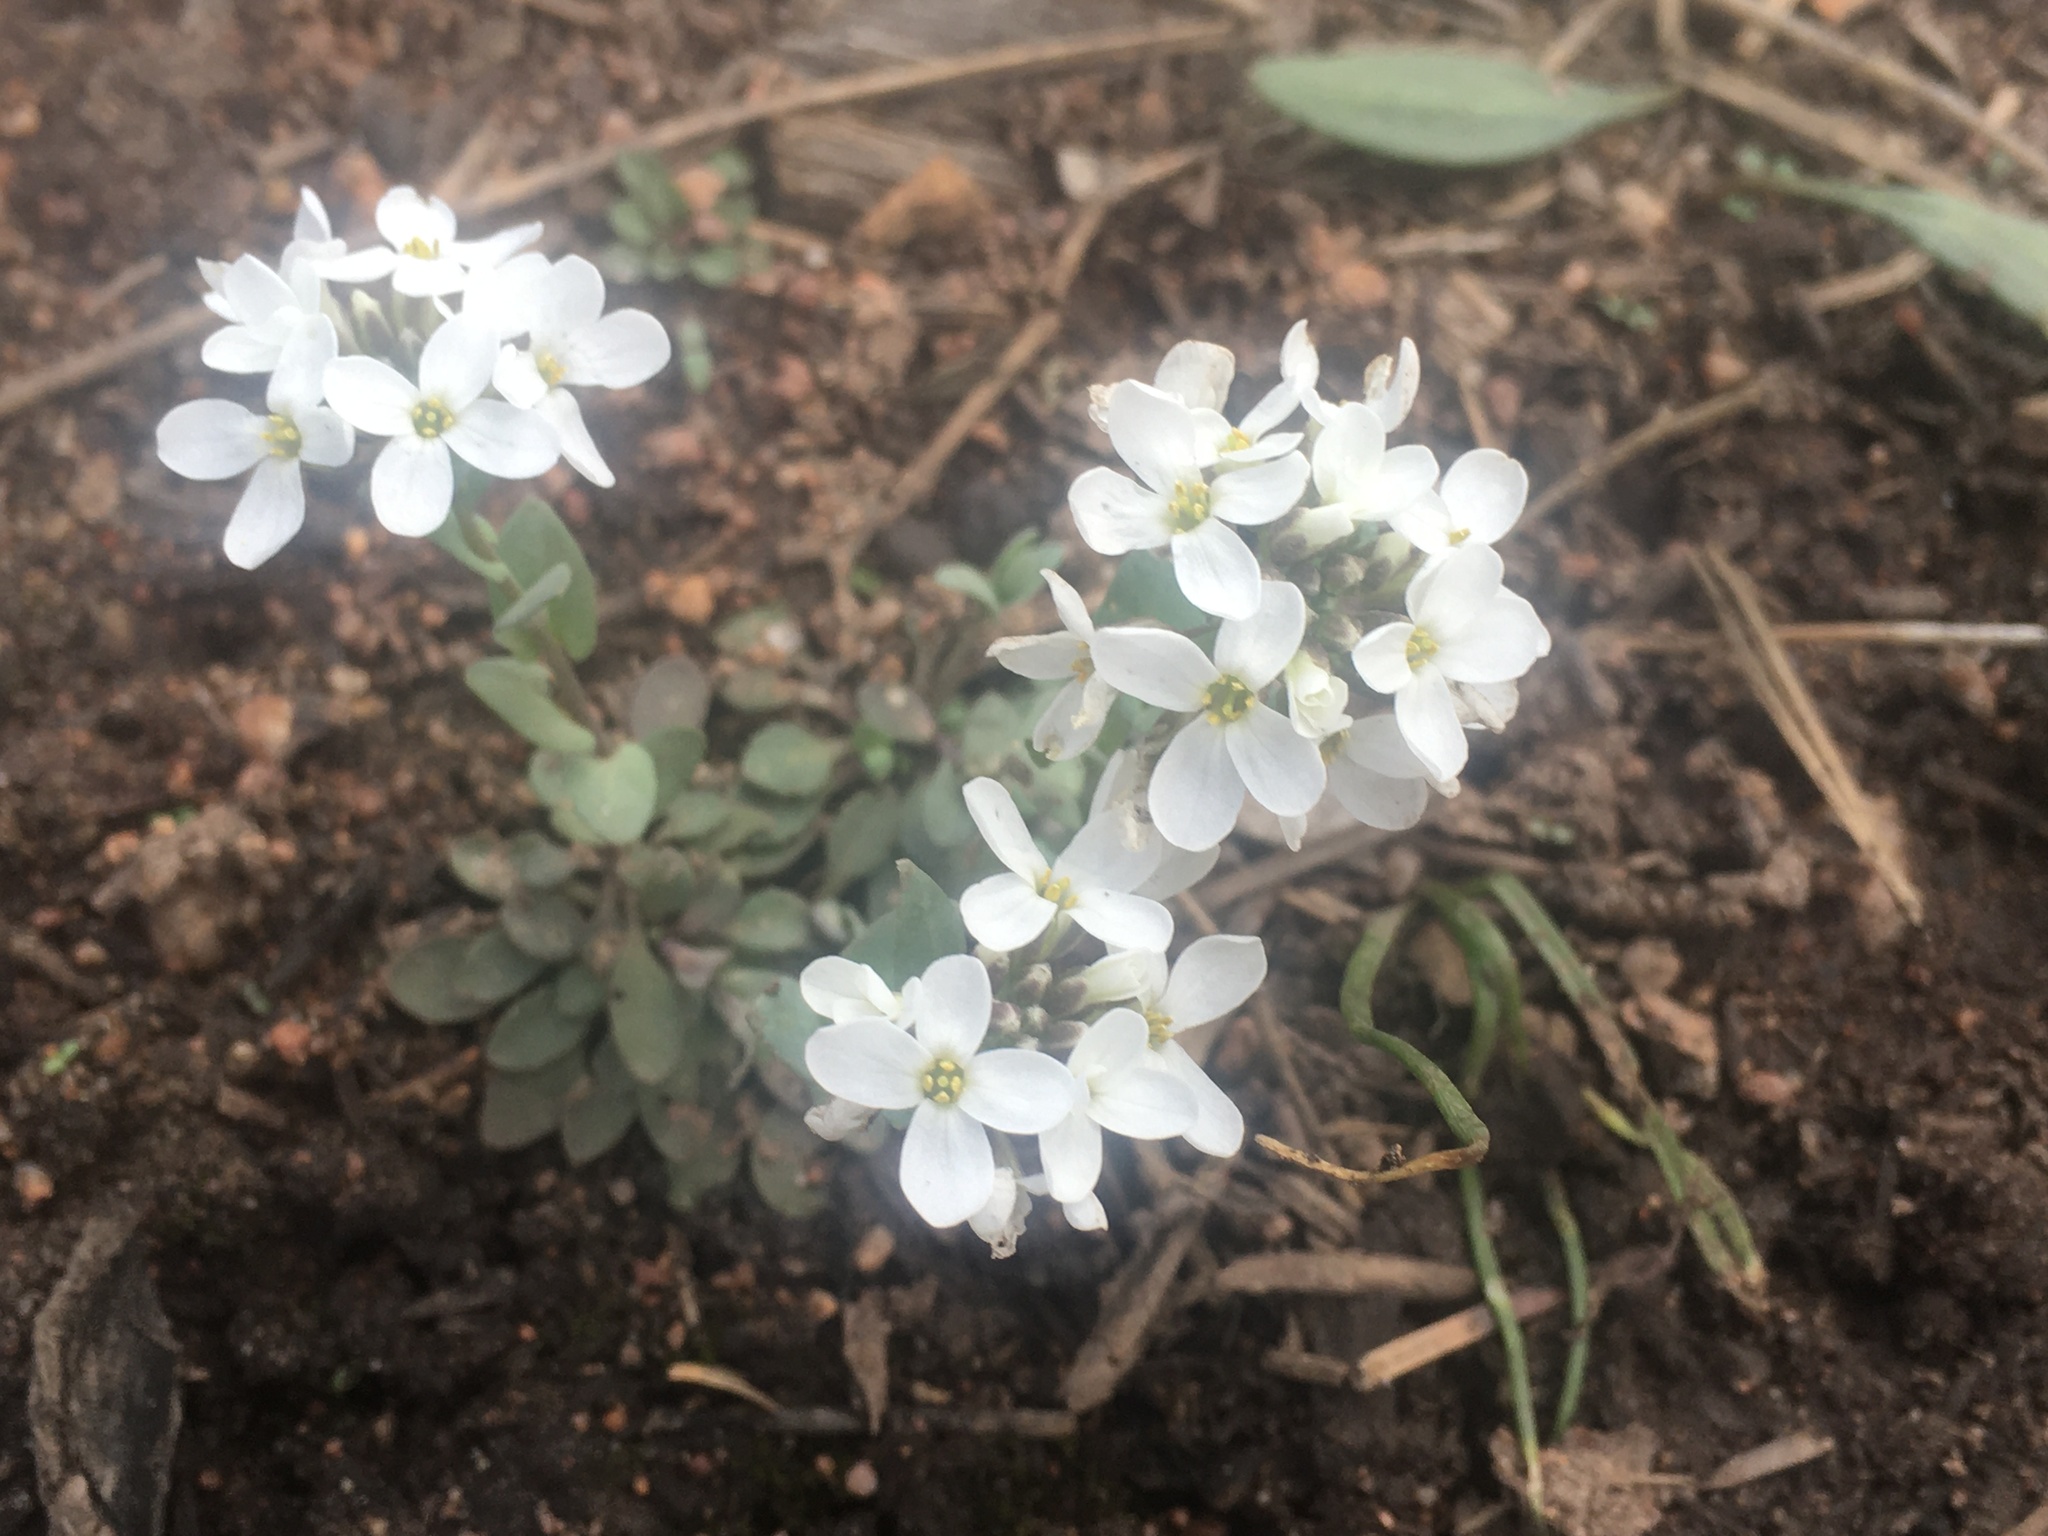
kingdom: Plantae
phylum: Tracheophyta
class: Magnoliopsida
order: Brassicales
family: Brassicaceae
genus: Noccaea
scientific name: Noccaea fendleri
